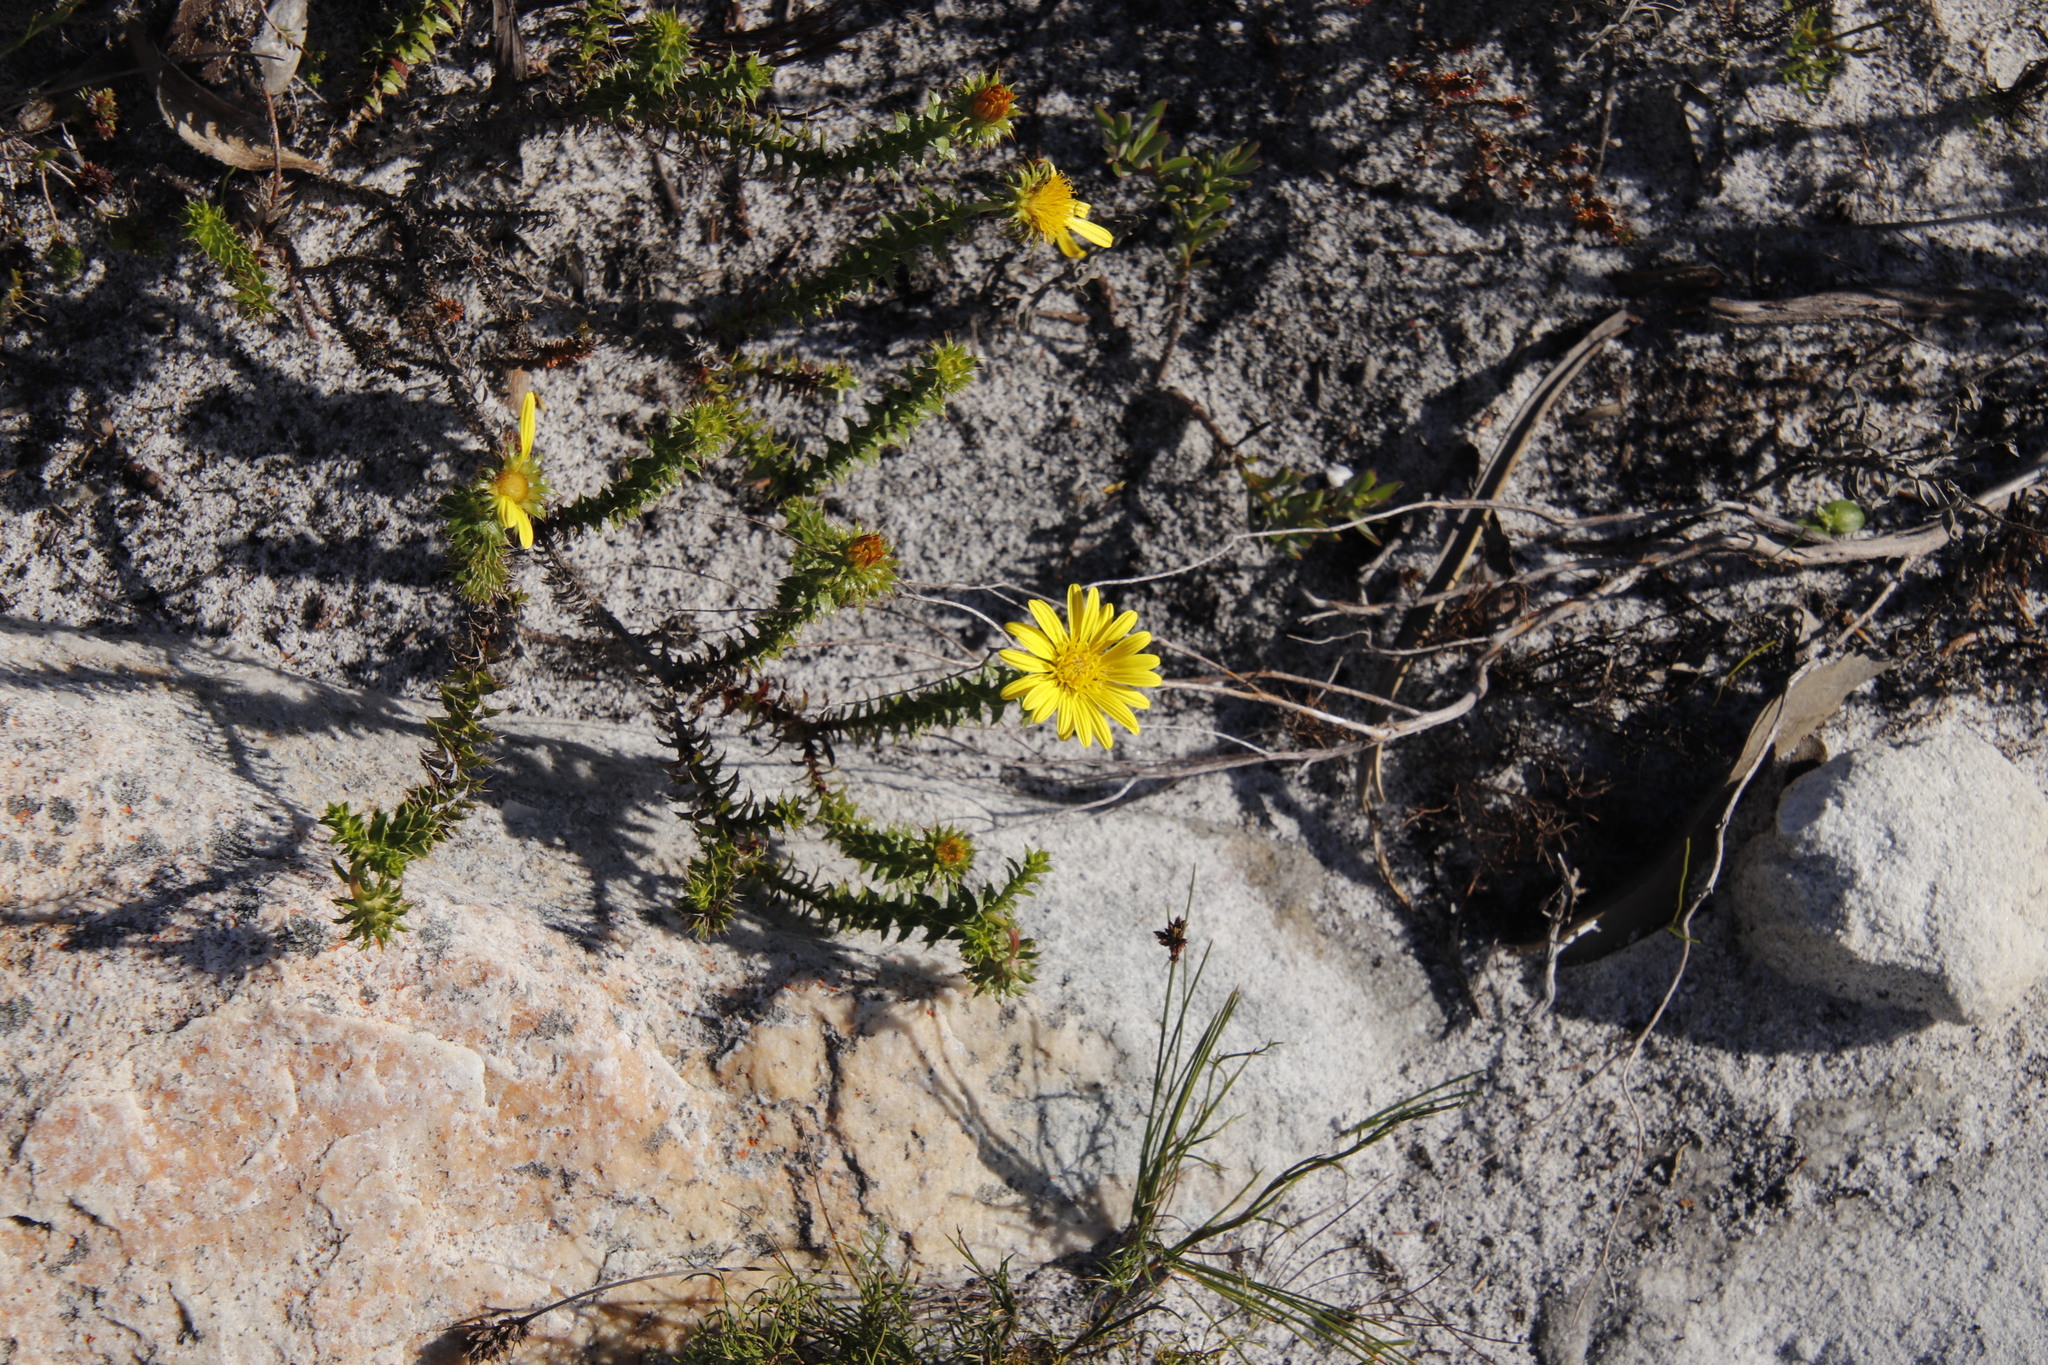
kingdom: Plantae
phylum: Tracheophyta
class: Magnoliopsida
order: Asterales
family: Asteraceae
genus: Cullumia
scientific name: Cullumia setosa
